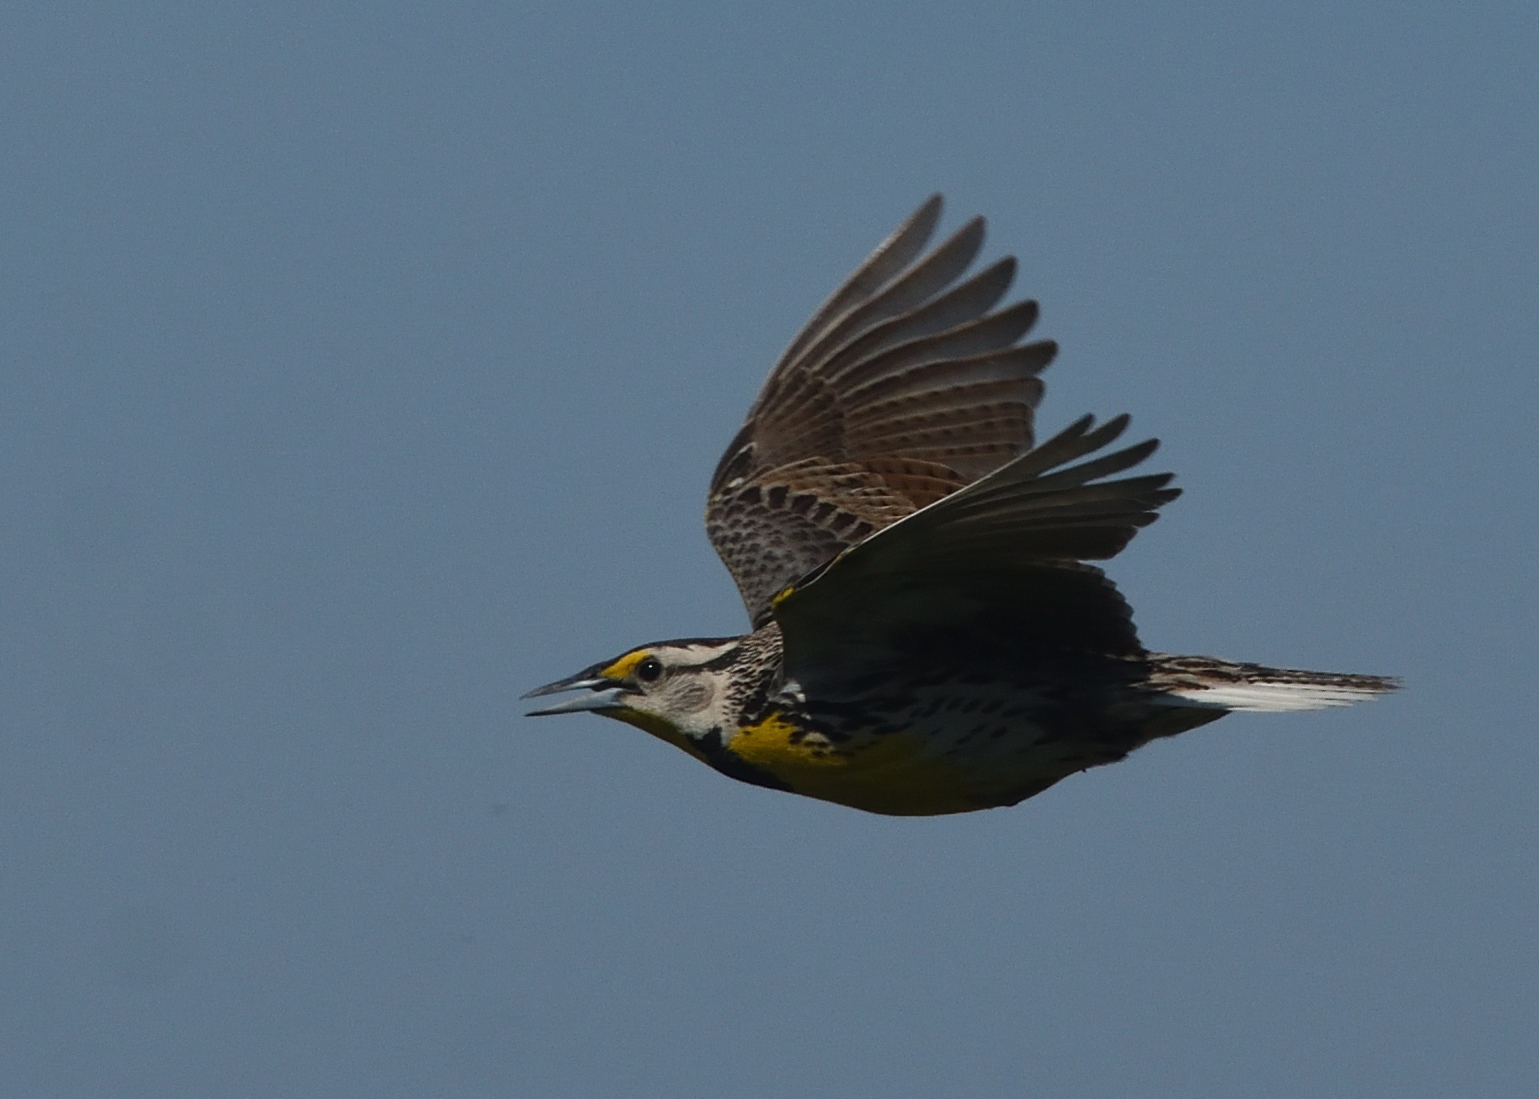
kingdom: Animalia
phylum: Chordata
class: Aves
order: Passeriformes
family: Icteridae
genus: Sturnella
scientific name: Sturnella magna
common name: Eastern meadowlark
